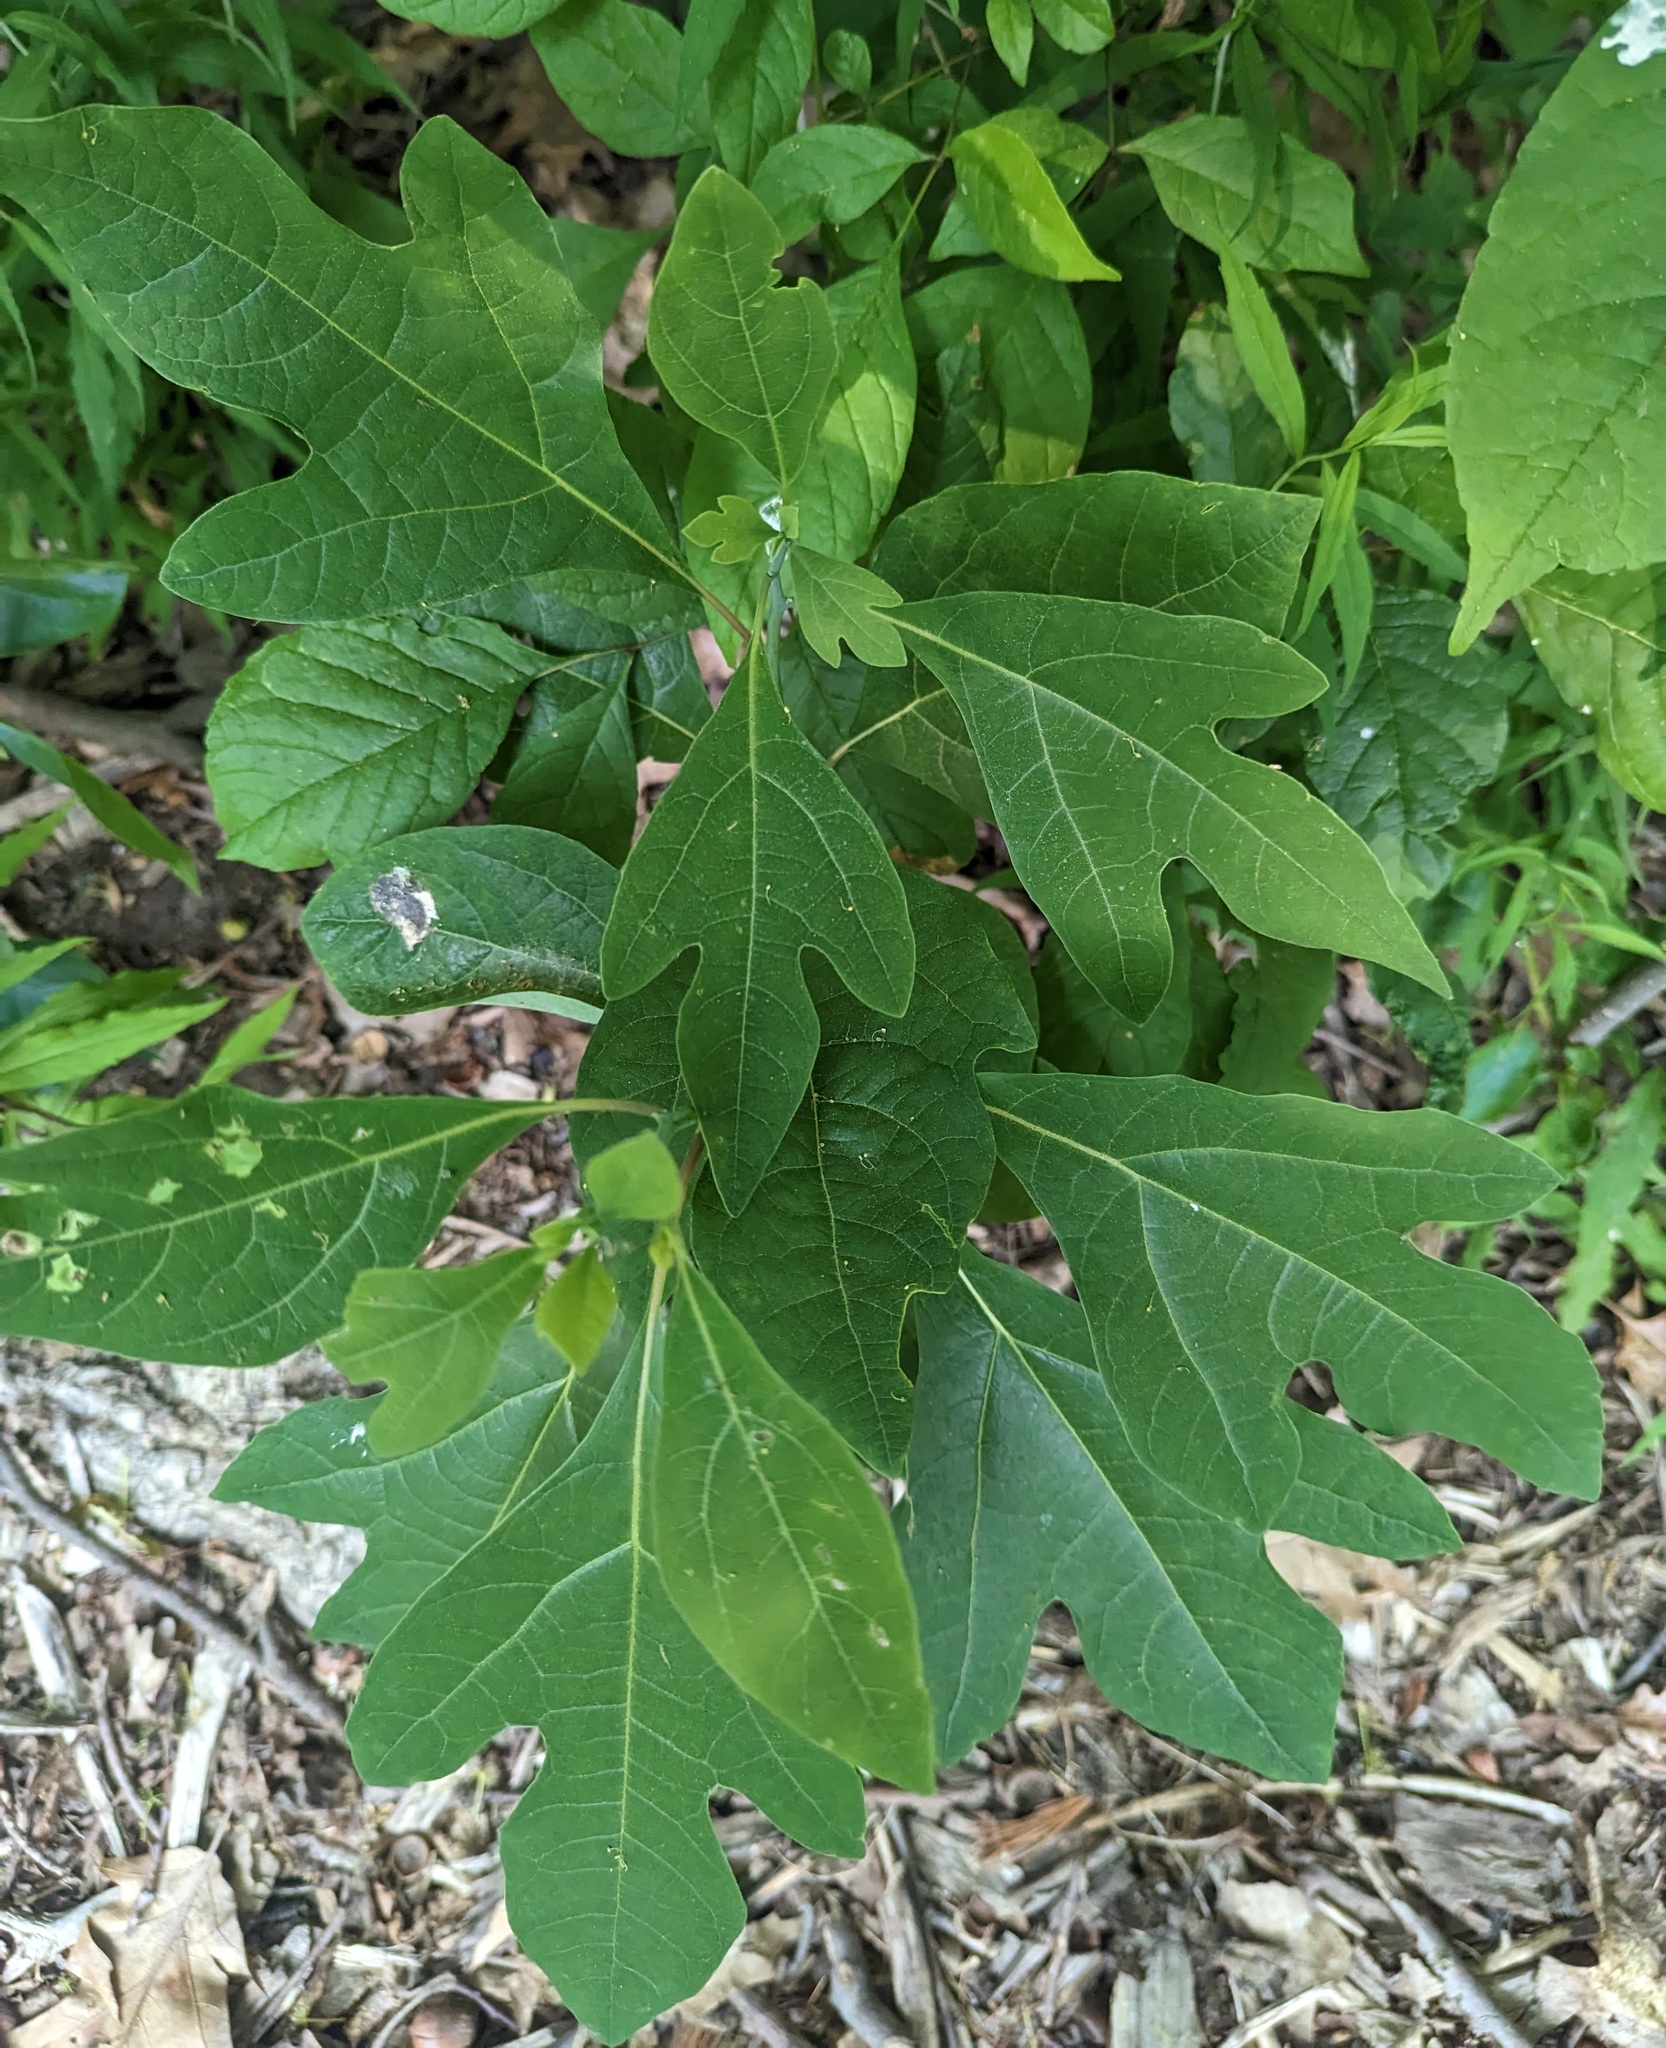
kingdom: Plantae
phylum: Tracheophyta
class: Magnoliopsida
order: Laurales
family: Lauraceae
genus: Sassafras
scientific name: Sassafras albidum
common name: Sassafras
